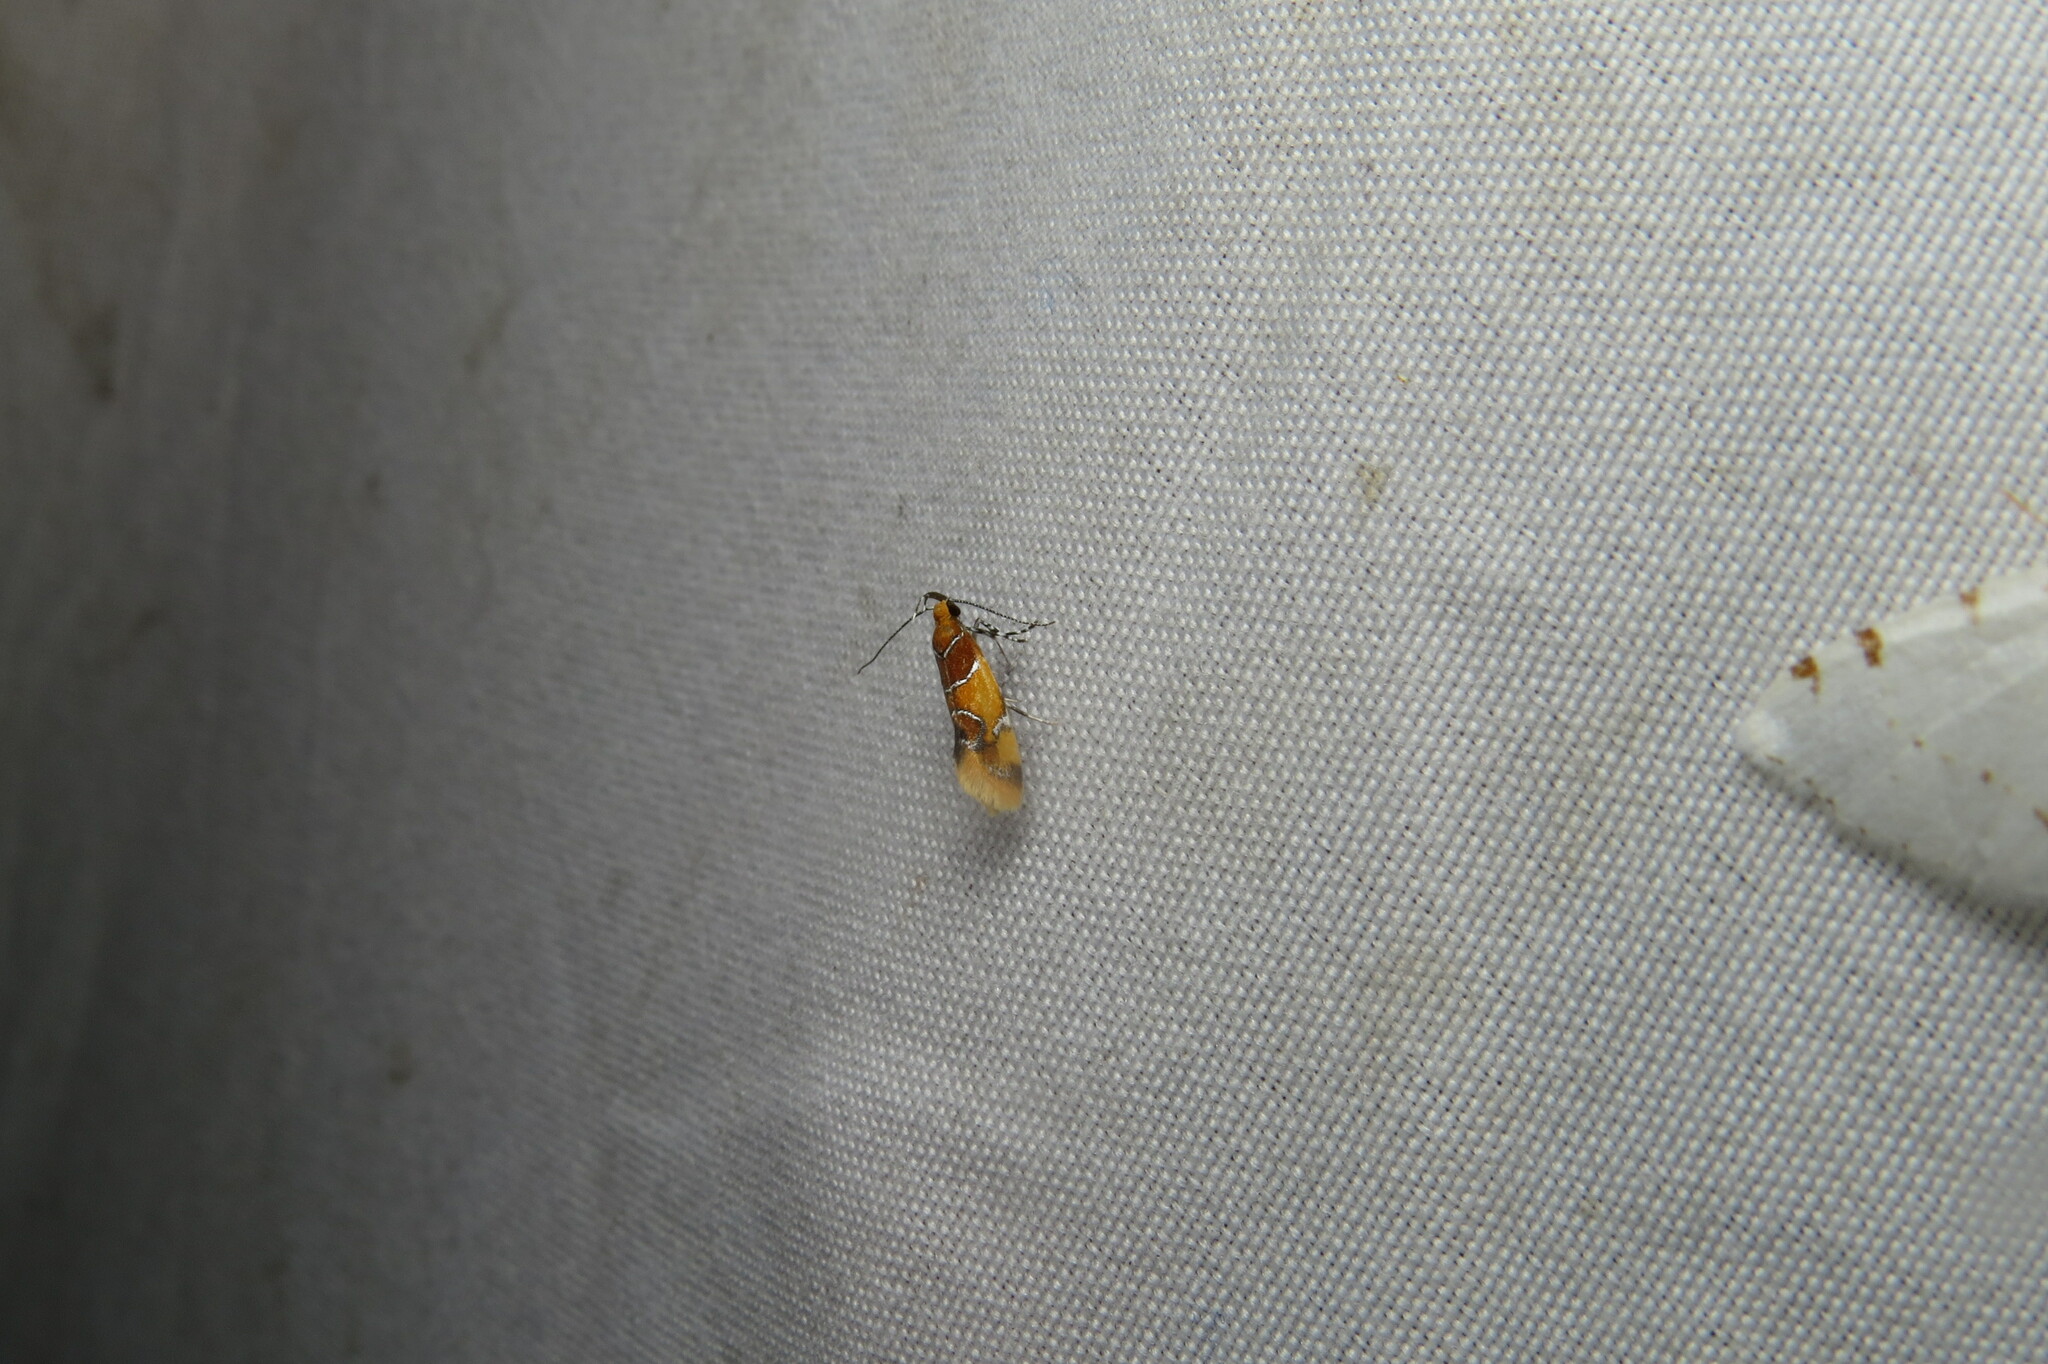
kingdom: Animalia
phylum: Arthropoda
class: Insecta
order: Lepidoptera
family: Oecophoridae
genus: Callima
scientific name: Callima argenticinctella
